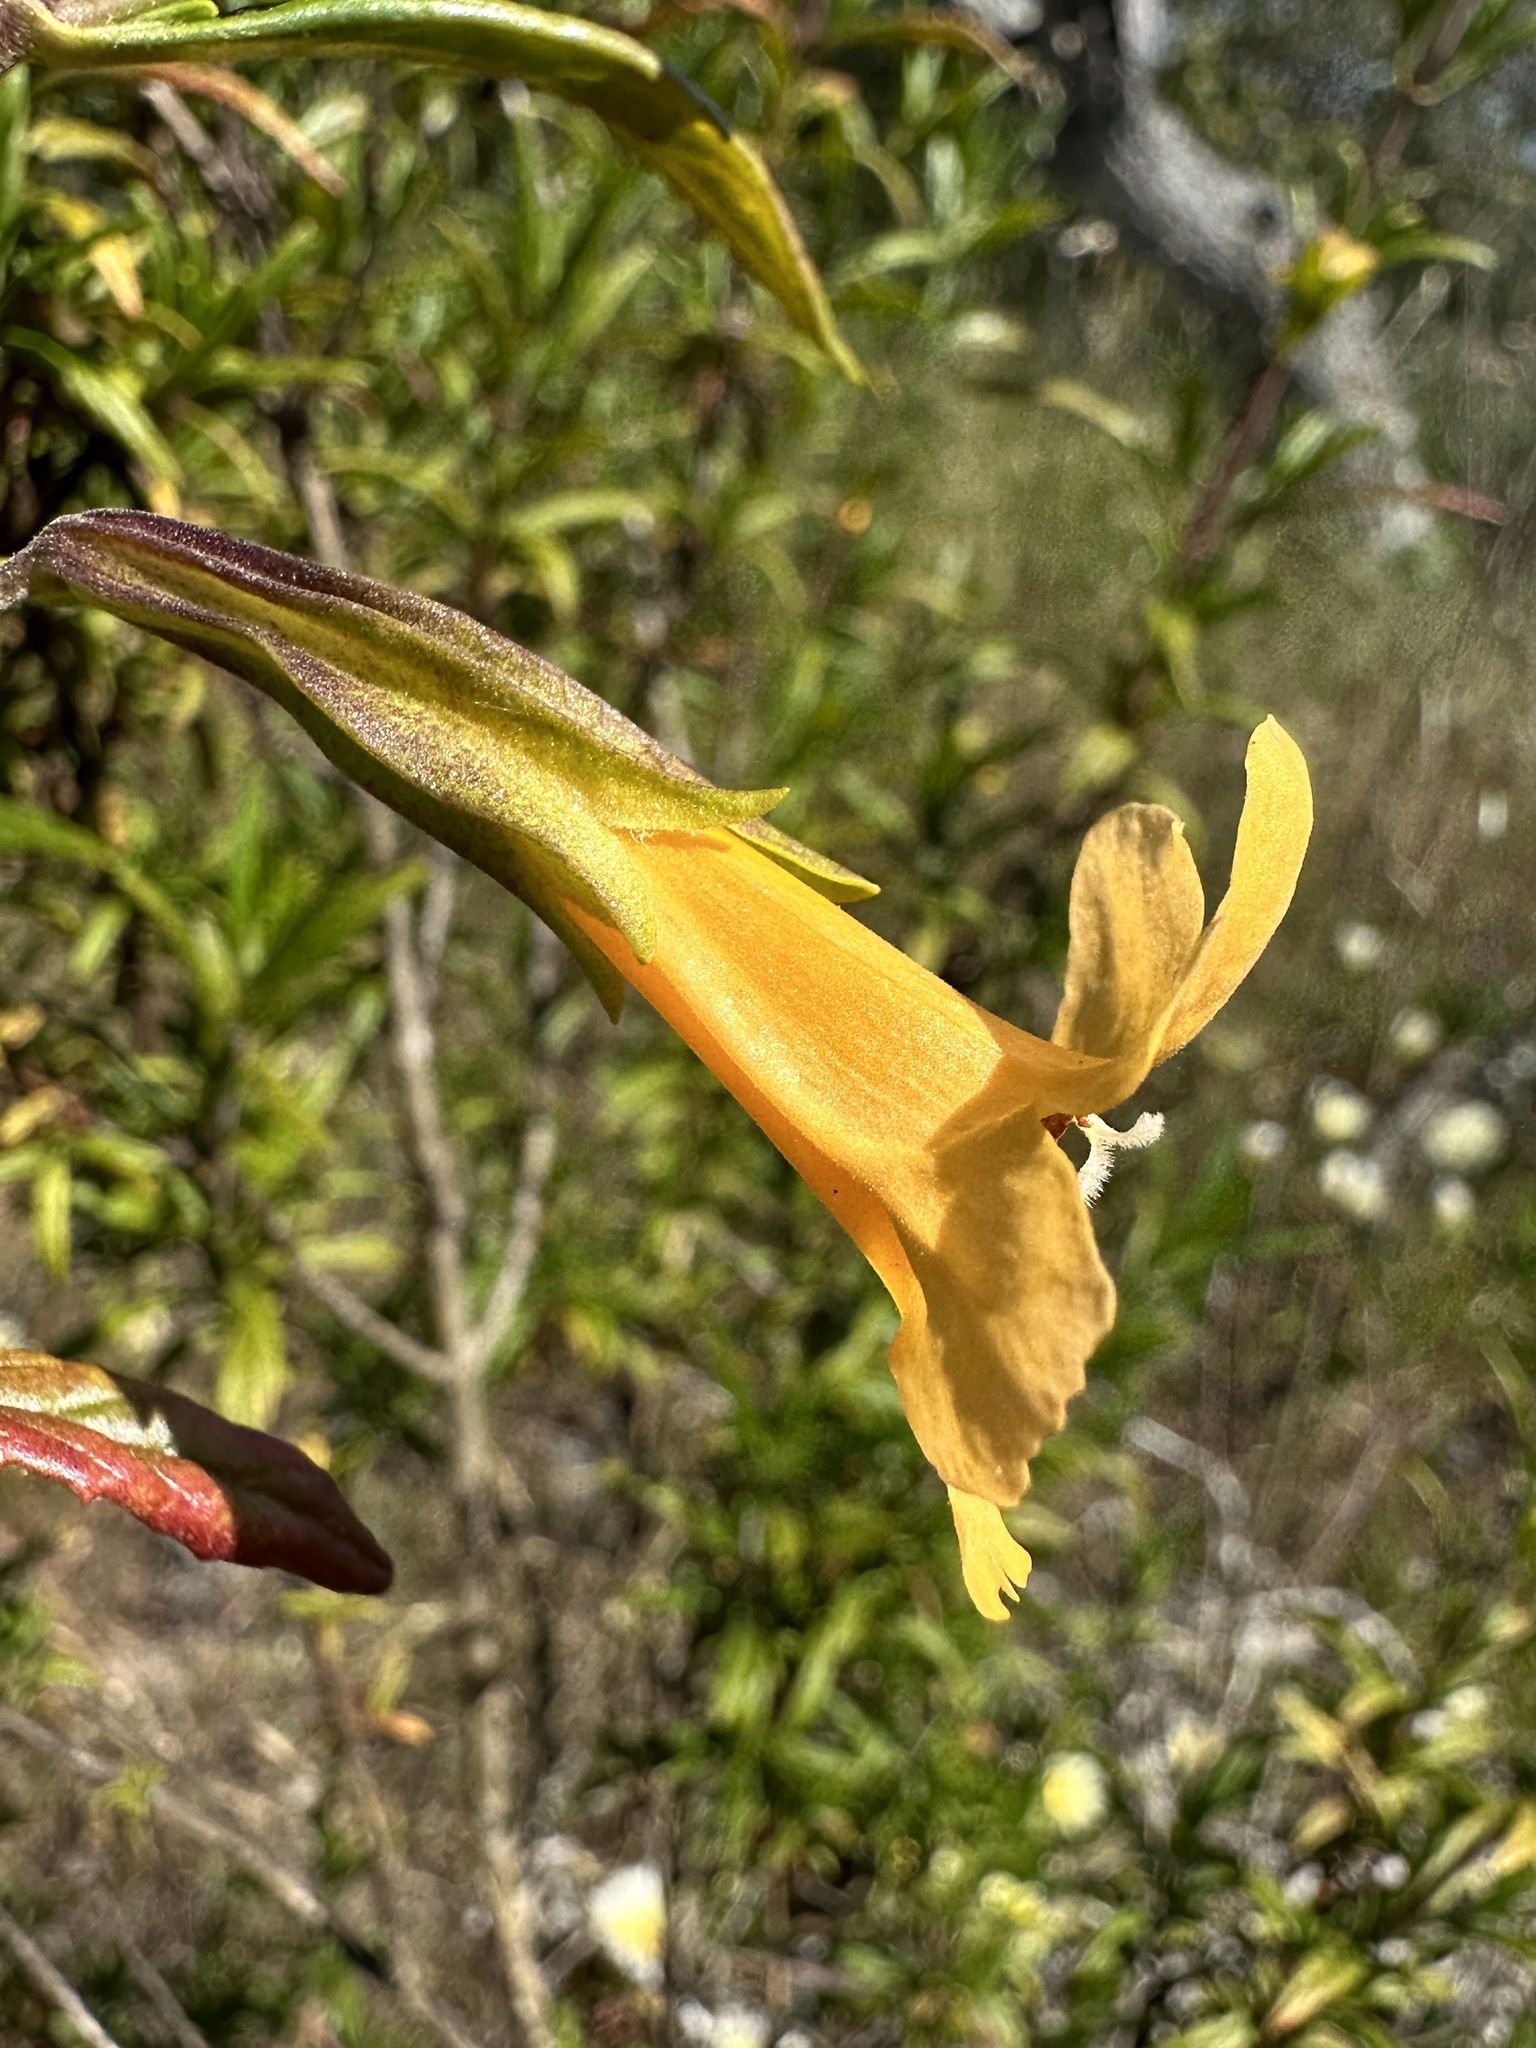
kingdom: Plantae
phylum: Tracheophyta
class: Magnoliopsida
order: Lamiales
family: Phrymaceae
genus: Diplacus
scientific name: Diplacus aurantiacus
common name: Bush monkey-flower
